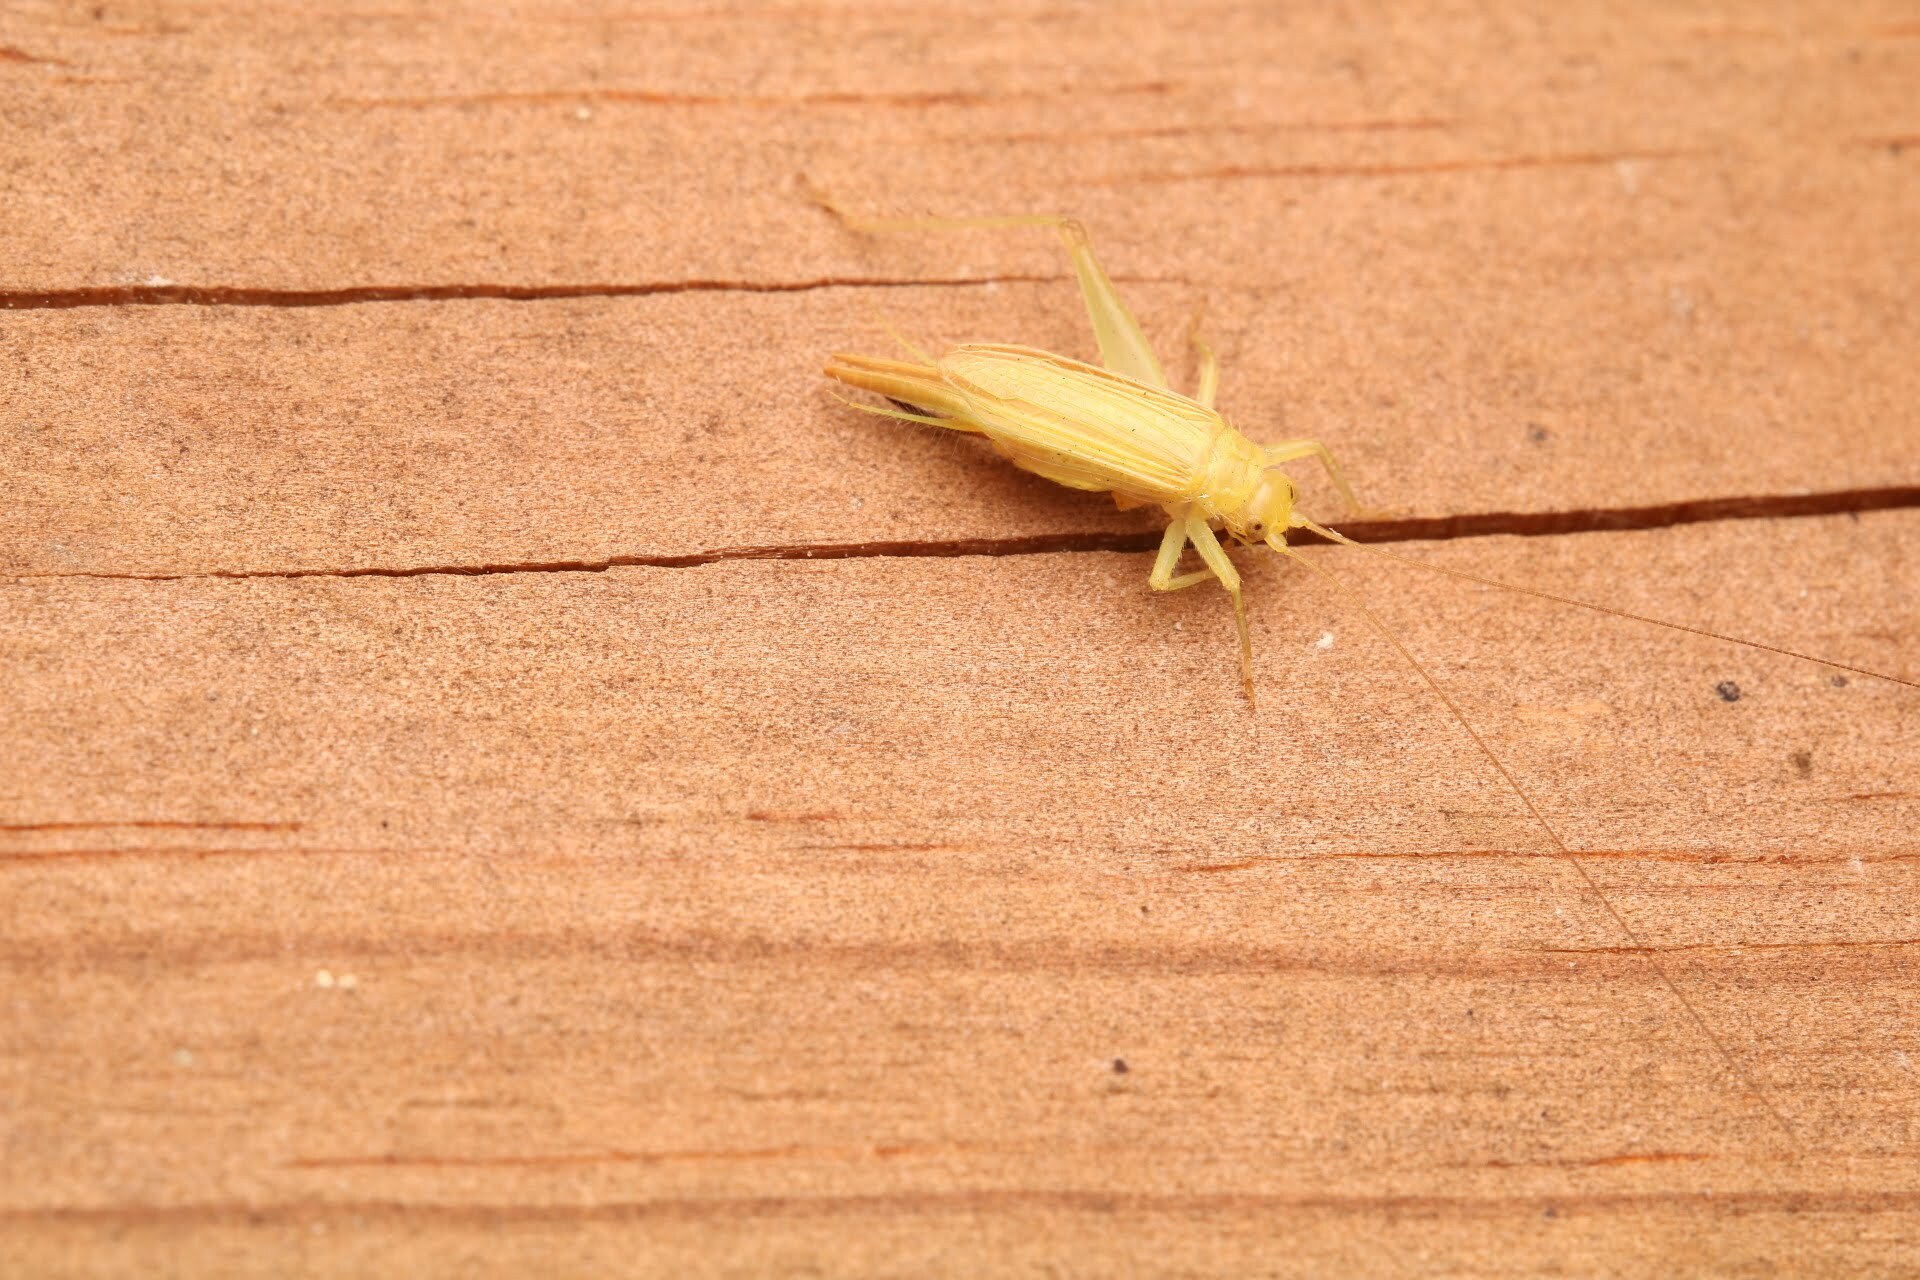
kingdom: Animalia
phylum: Arthropoda
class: Insecta
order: Orthoptera
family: Trigonidiidae
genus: Cyrtoxipha
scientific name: Cyrtoxipha columbiana
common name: Columbian trig
